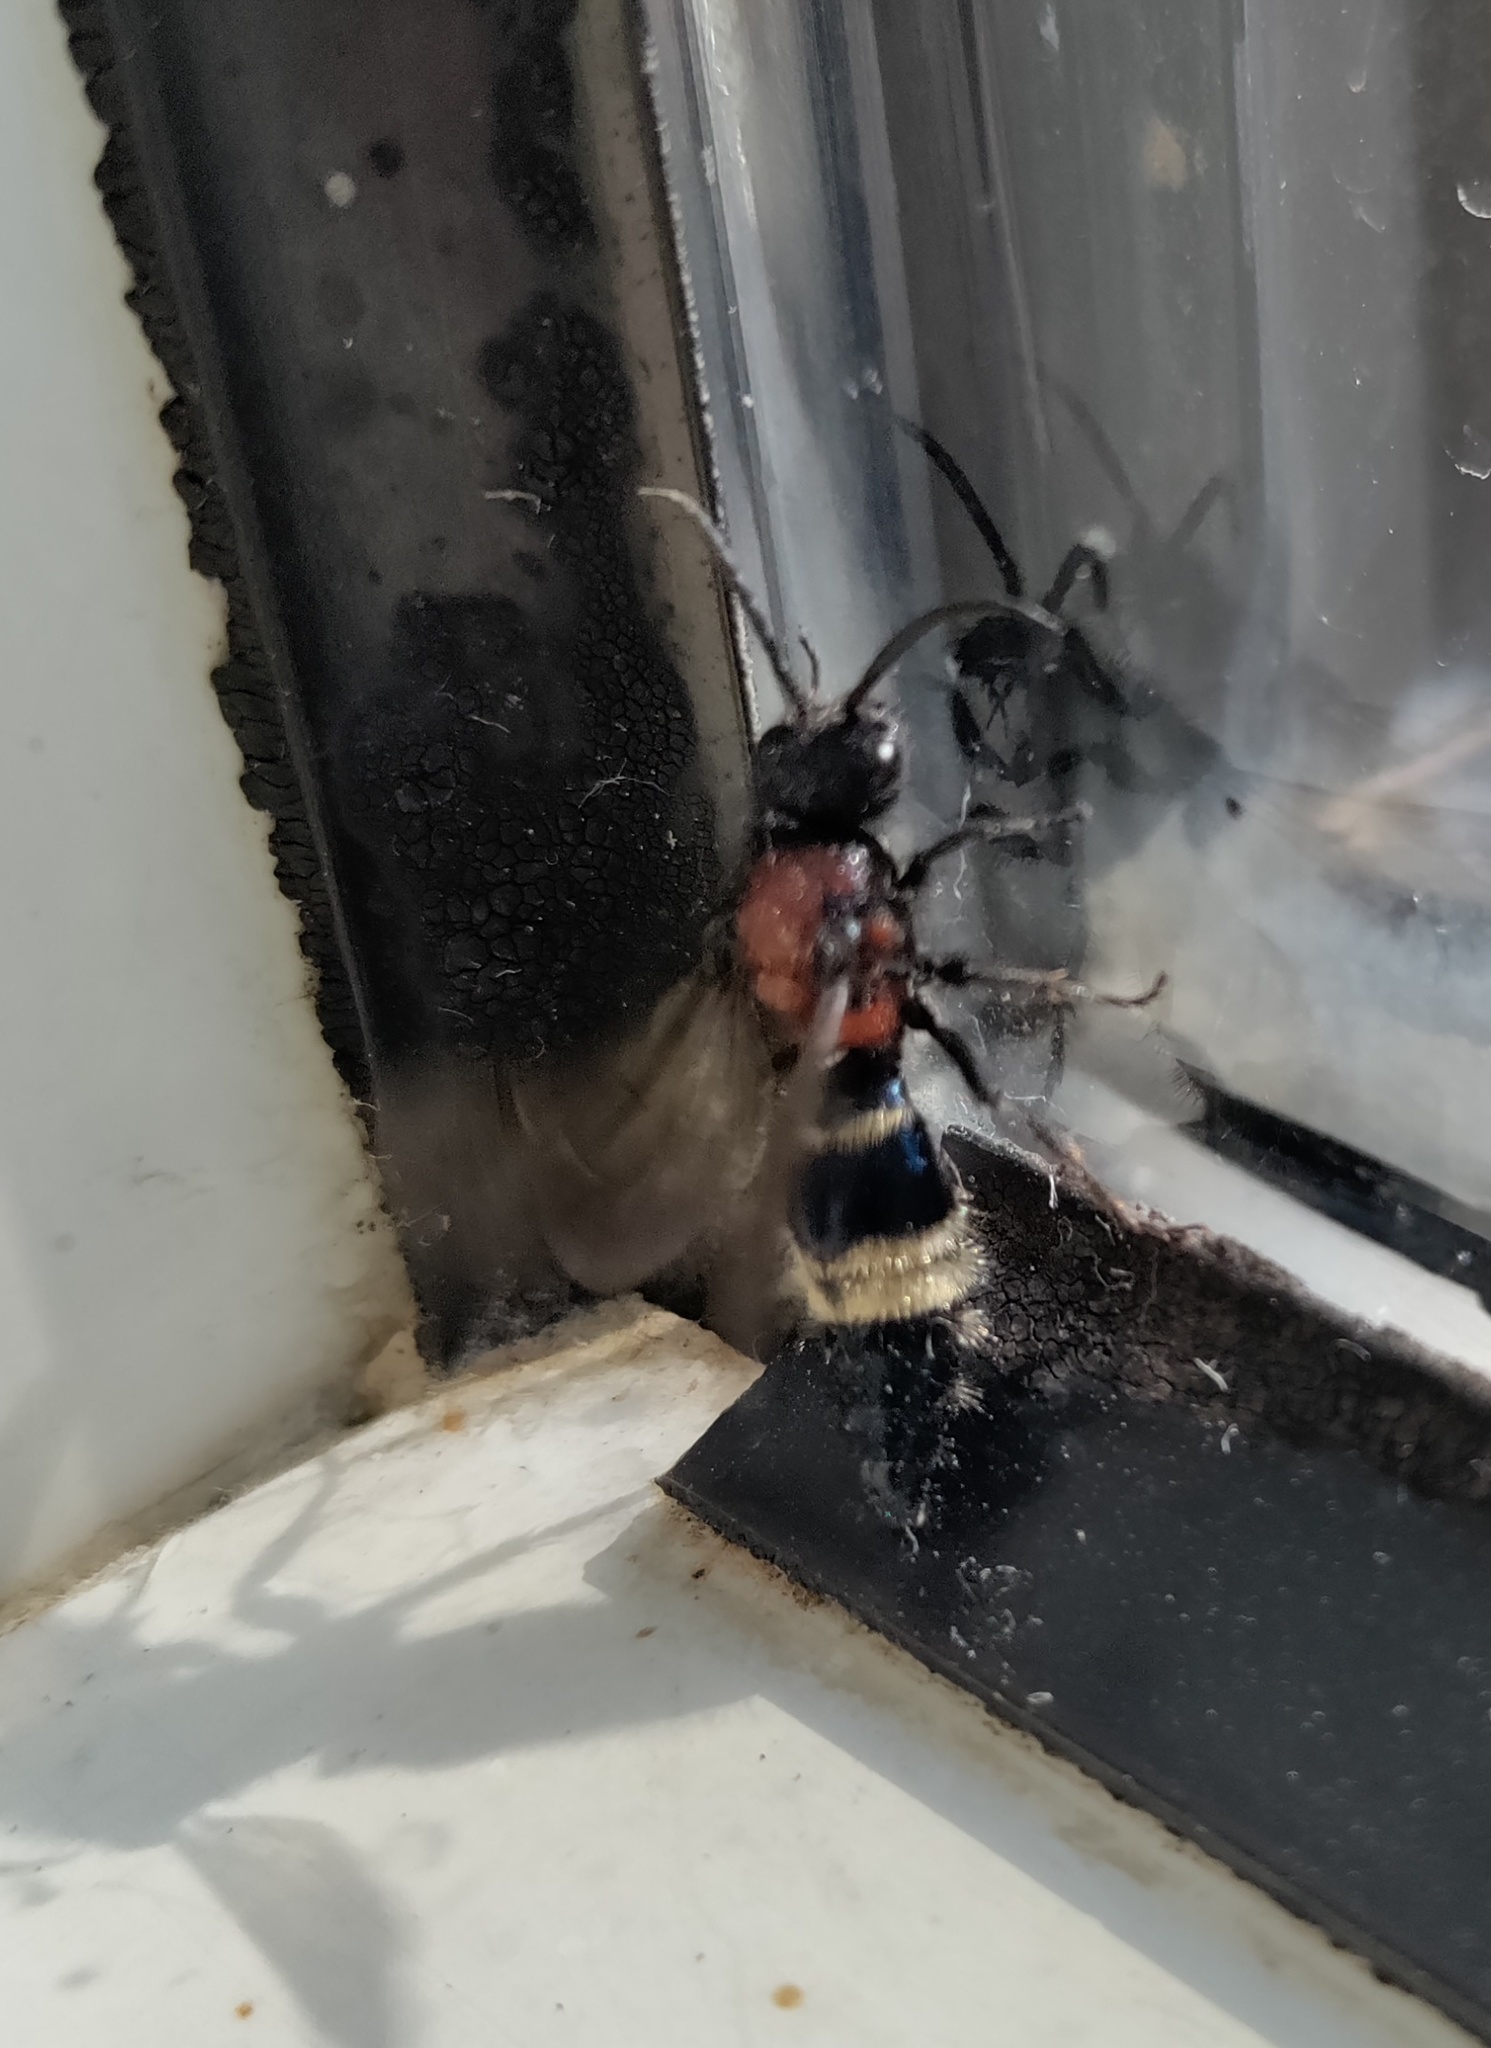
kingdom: Animalia
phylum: Arthropoda
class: Insecta
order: Hymenoptera
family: Mutillidae
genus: Ronisia
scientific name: Ronisia brutia
